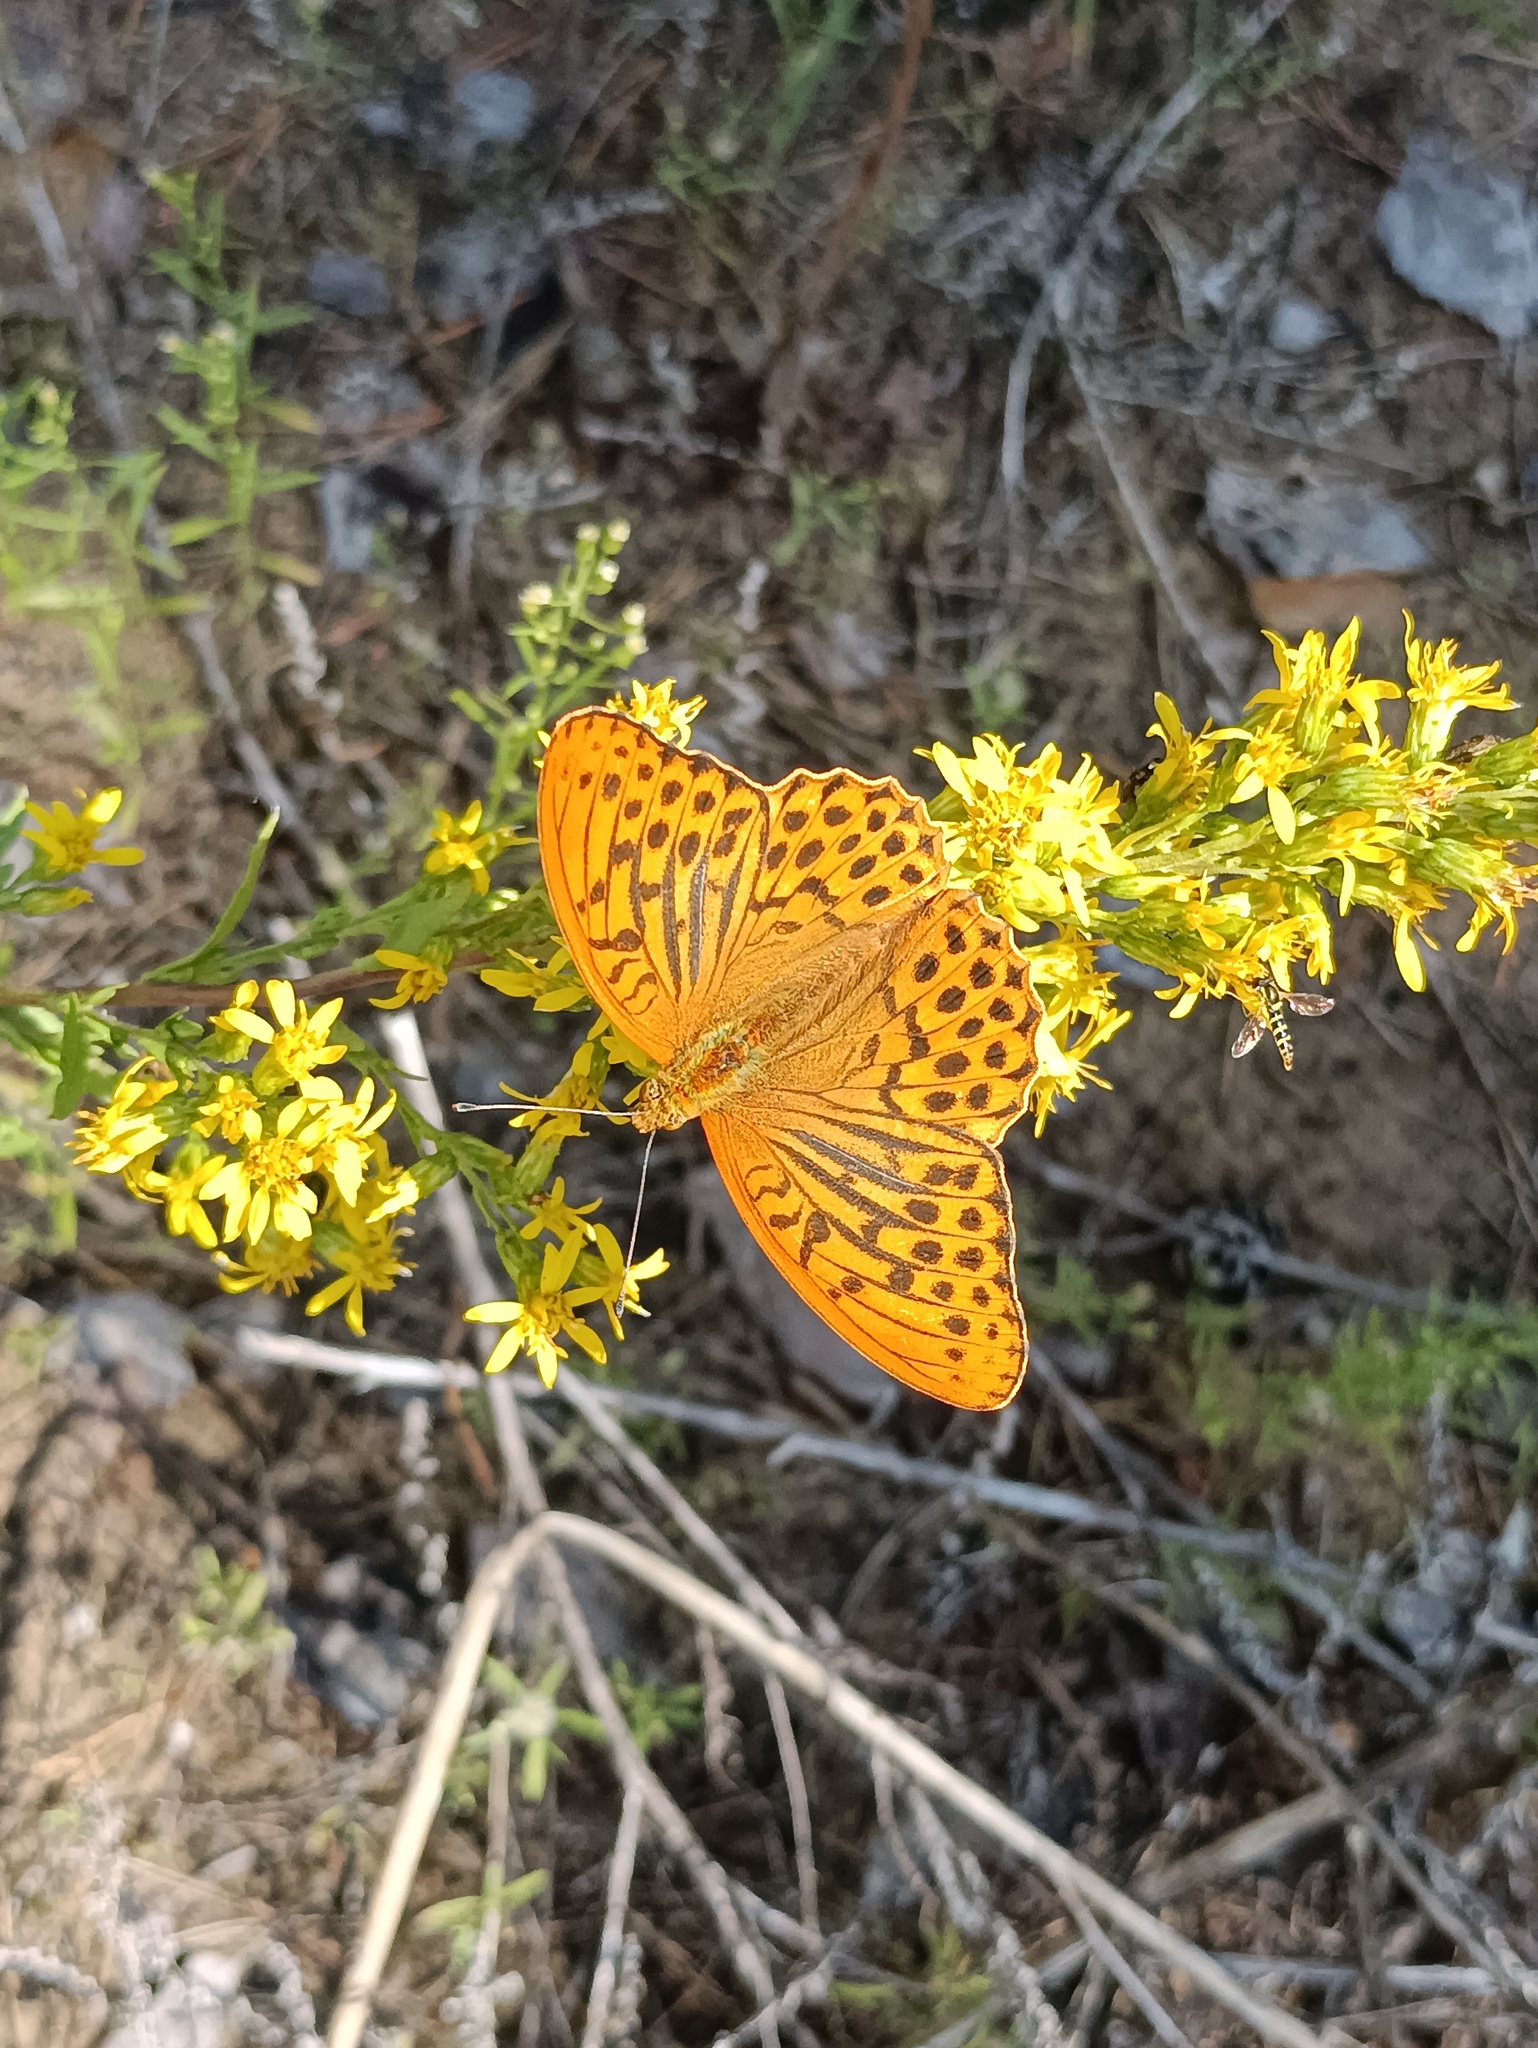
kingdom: Animalia
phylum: Arthropoda
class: Insecta
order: Lepidoptera
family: Nymphalidae
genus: Argynnis
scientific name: Argynnis paphia
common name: Silver-washed fritillary
